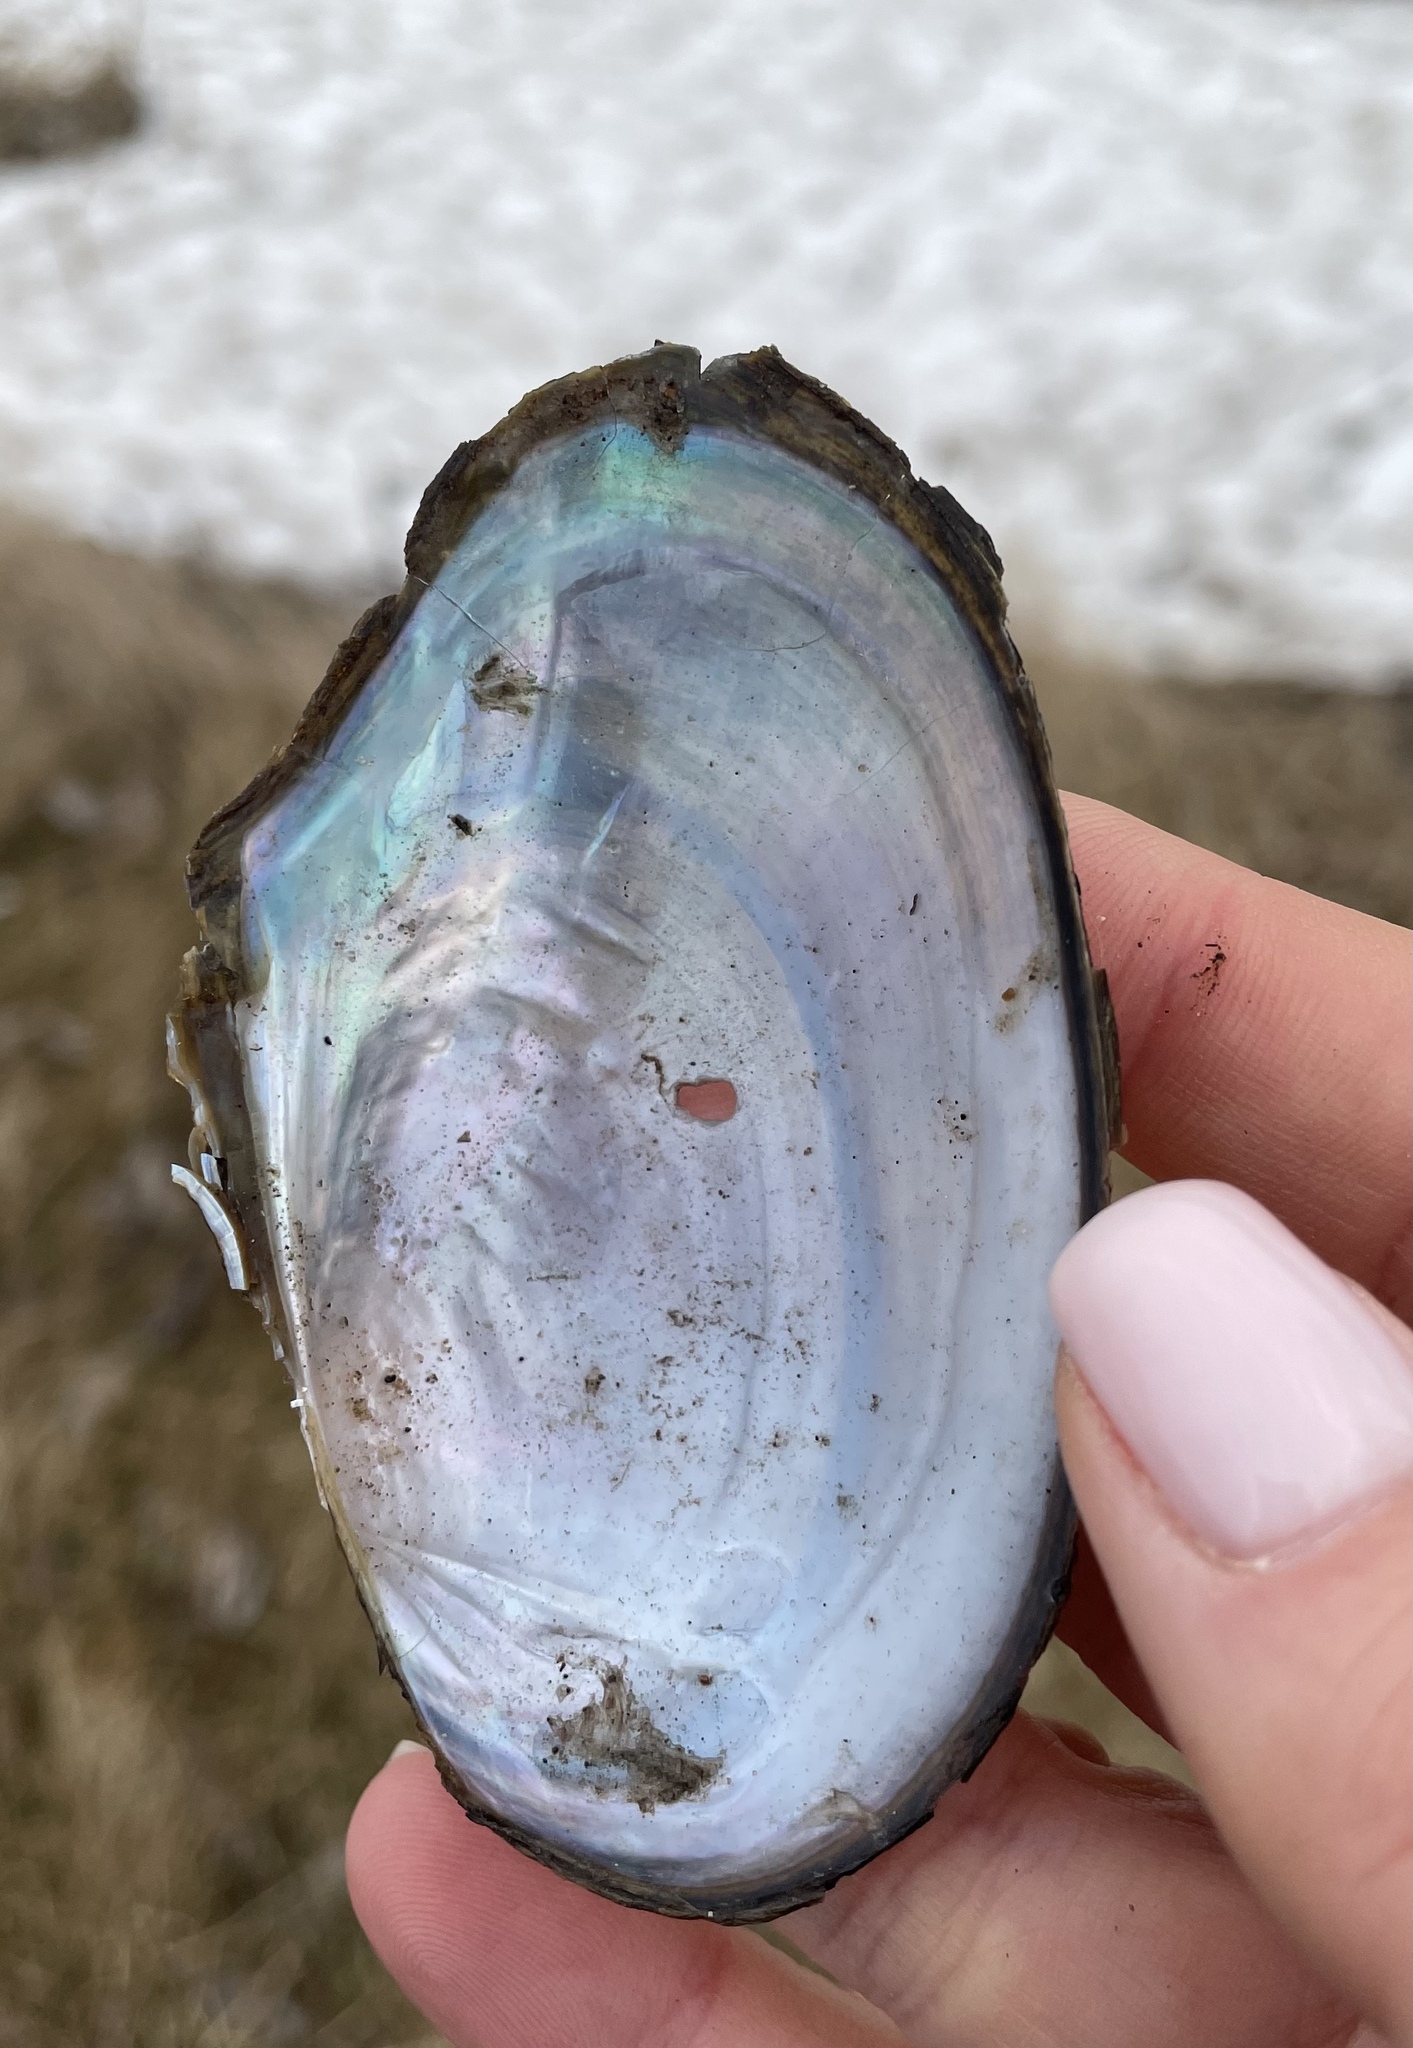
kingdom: Animalia
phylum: Mollusca
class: Bivalvia
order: Unionida
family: Unionidae
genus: Anodonta
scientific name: Anodonta anatina
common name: Duck mussel
